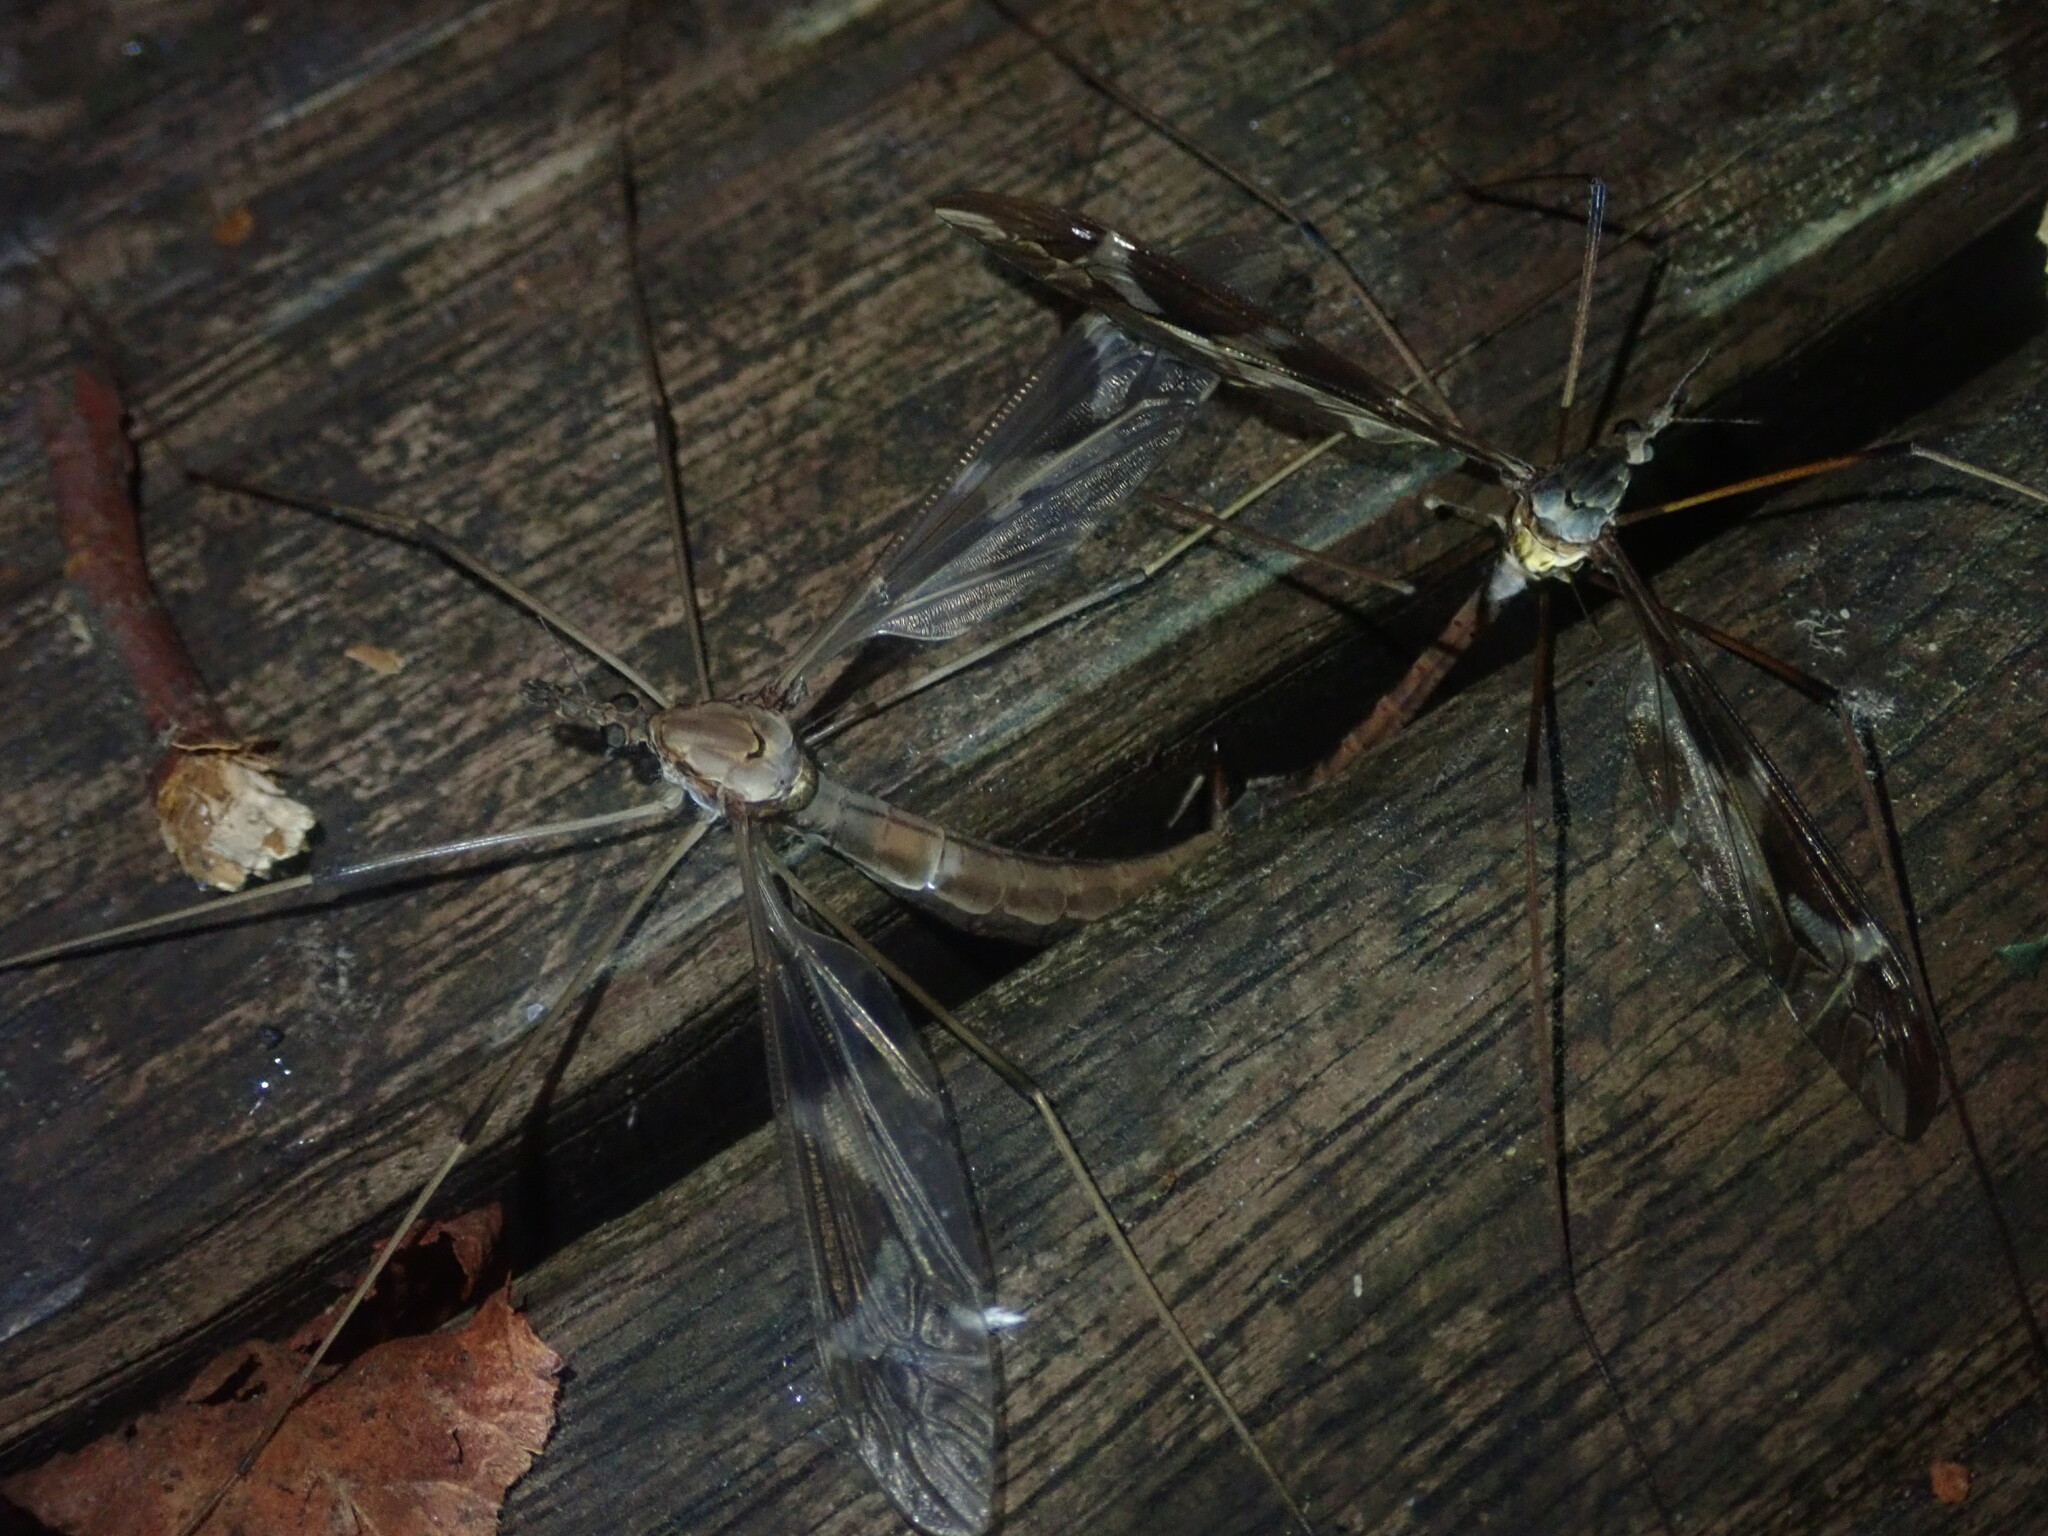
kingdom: Animalia
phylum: Arthropoda
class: Insecta
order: Diptera
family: Tipulidae
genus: Tipula
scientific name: Tipula maxima
